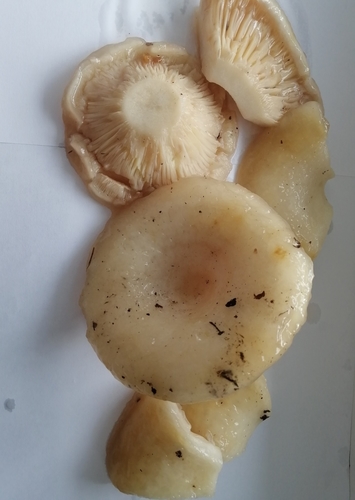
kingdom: Fungi
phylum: Basidiomycota
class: Agaricomycetes
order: Russulales
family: Russulaceae
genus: Lactarius
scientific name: Lactarius aquizonatus
